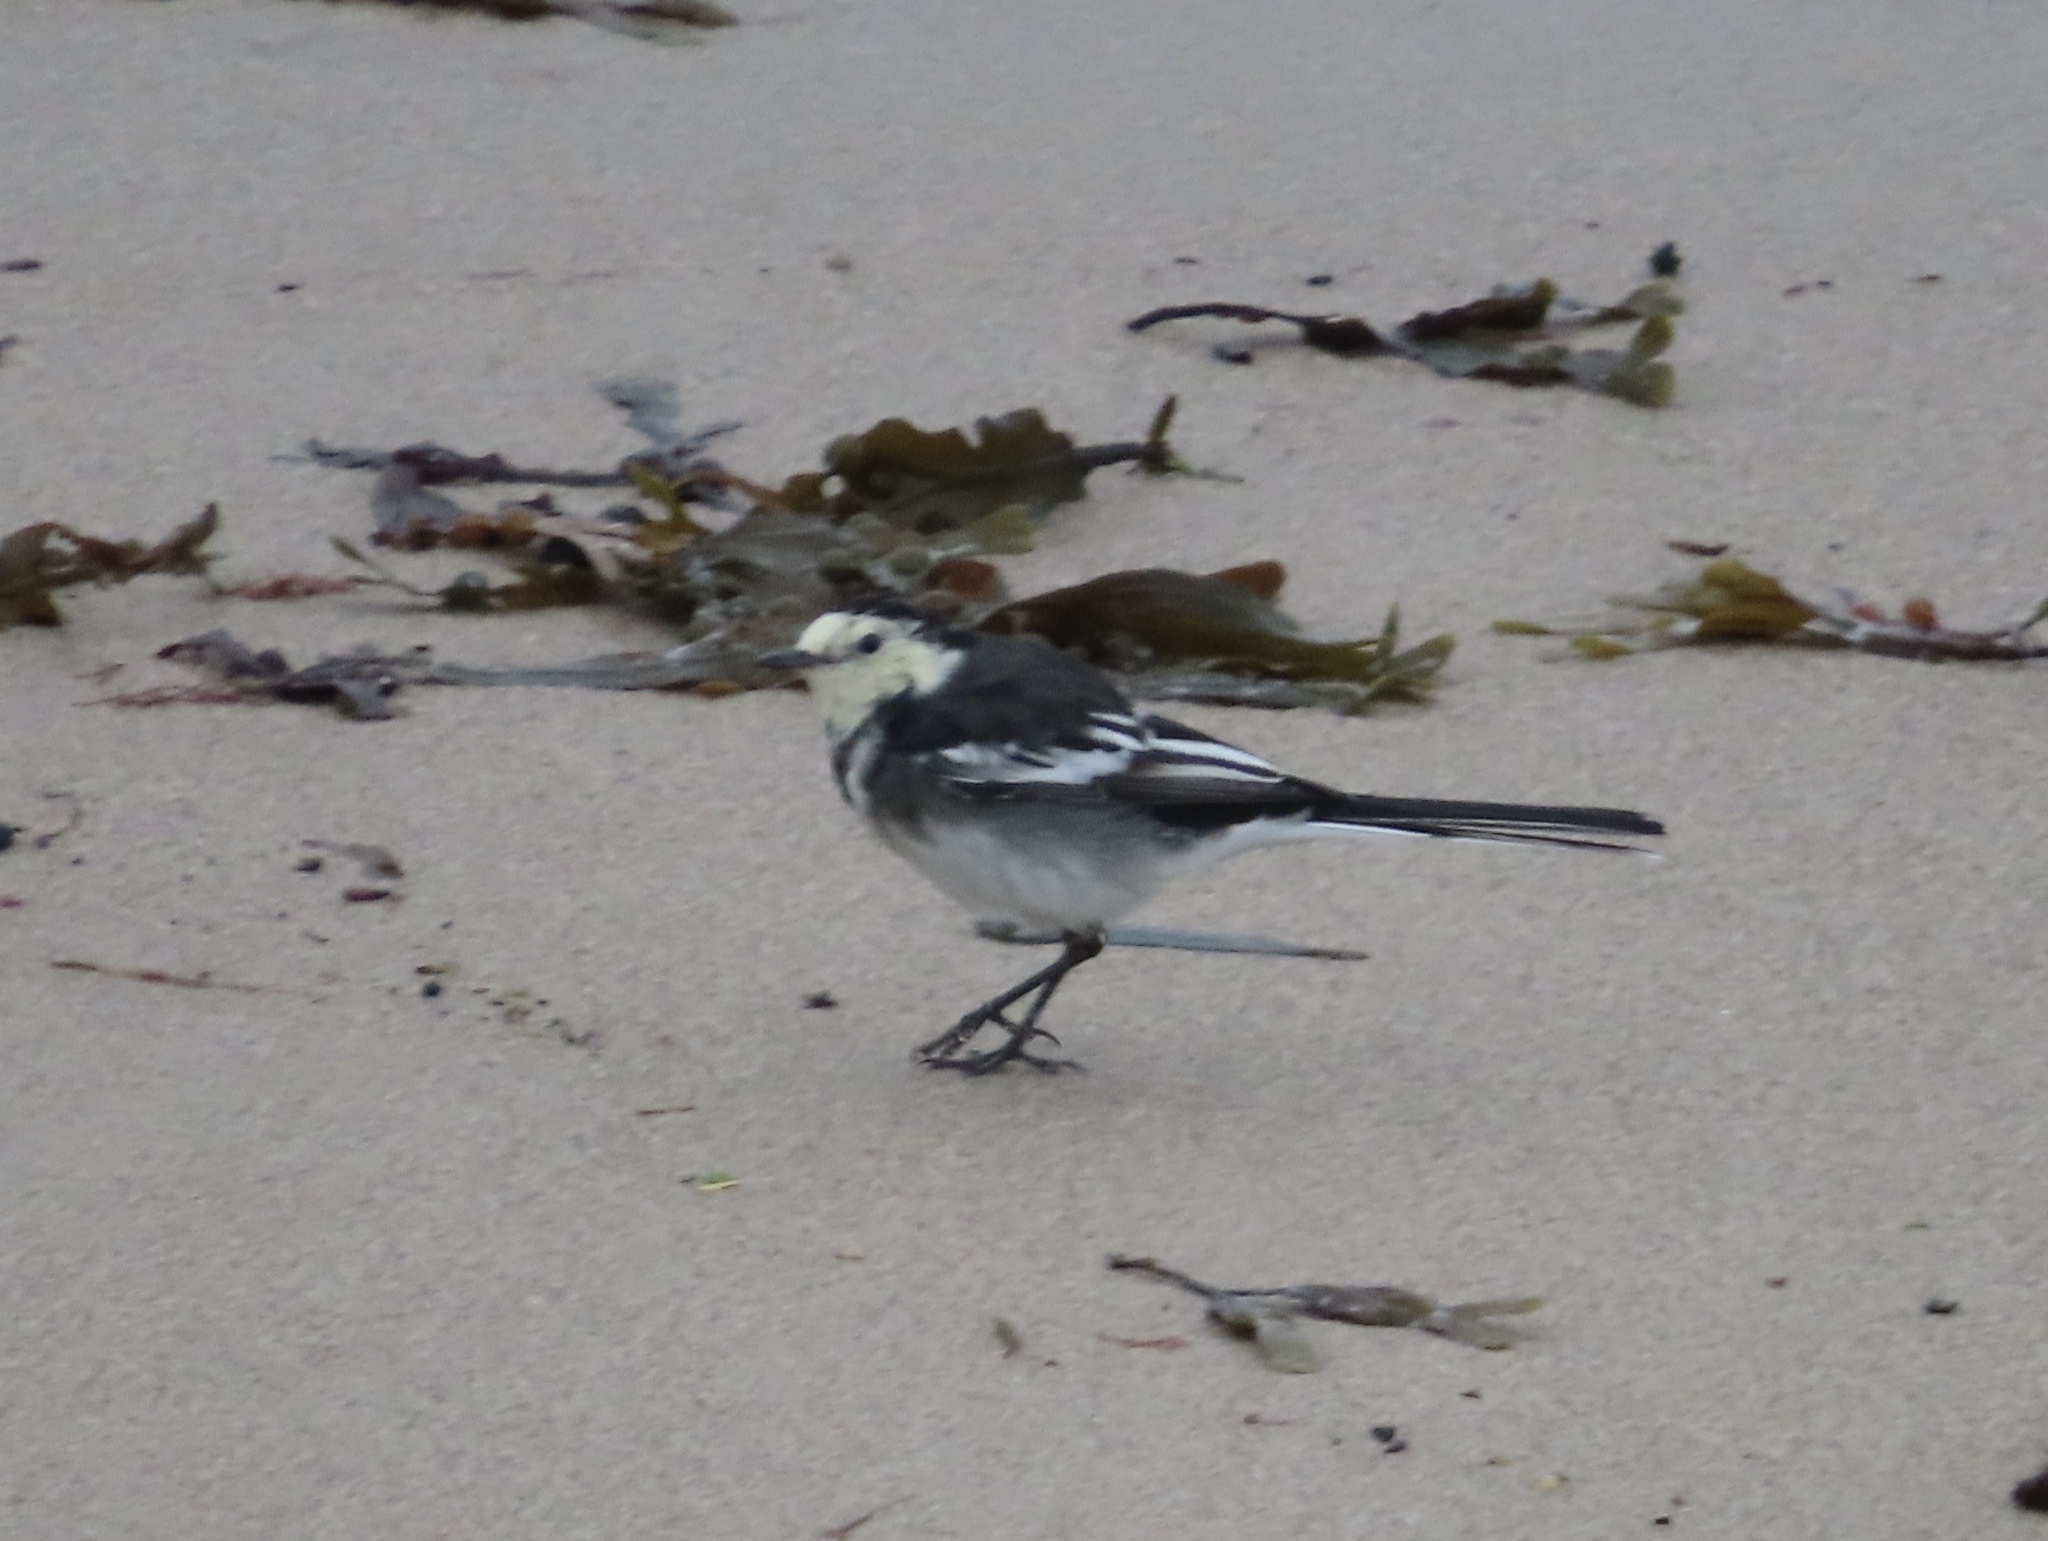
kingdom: Animalia
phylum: Chordata
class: Aves
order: Passeriformes
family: Motacillidae
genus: Motacilla
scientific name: Motacilla alba
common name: White wagtail
